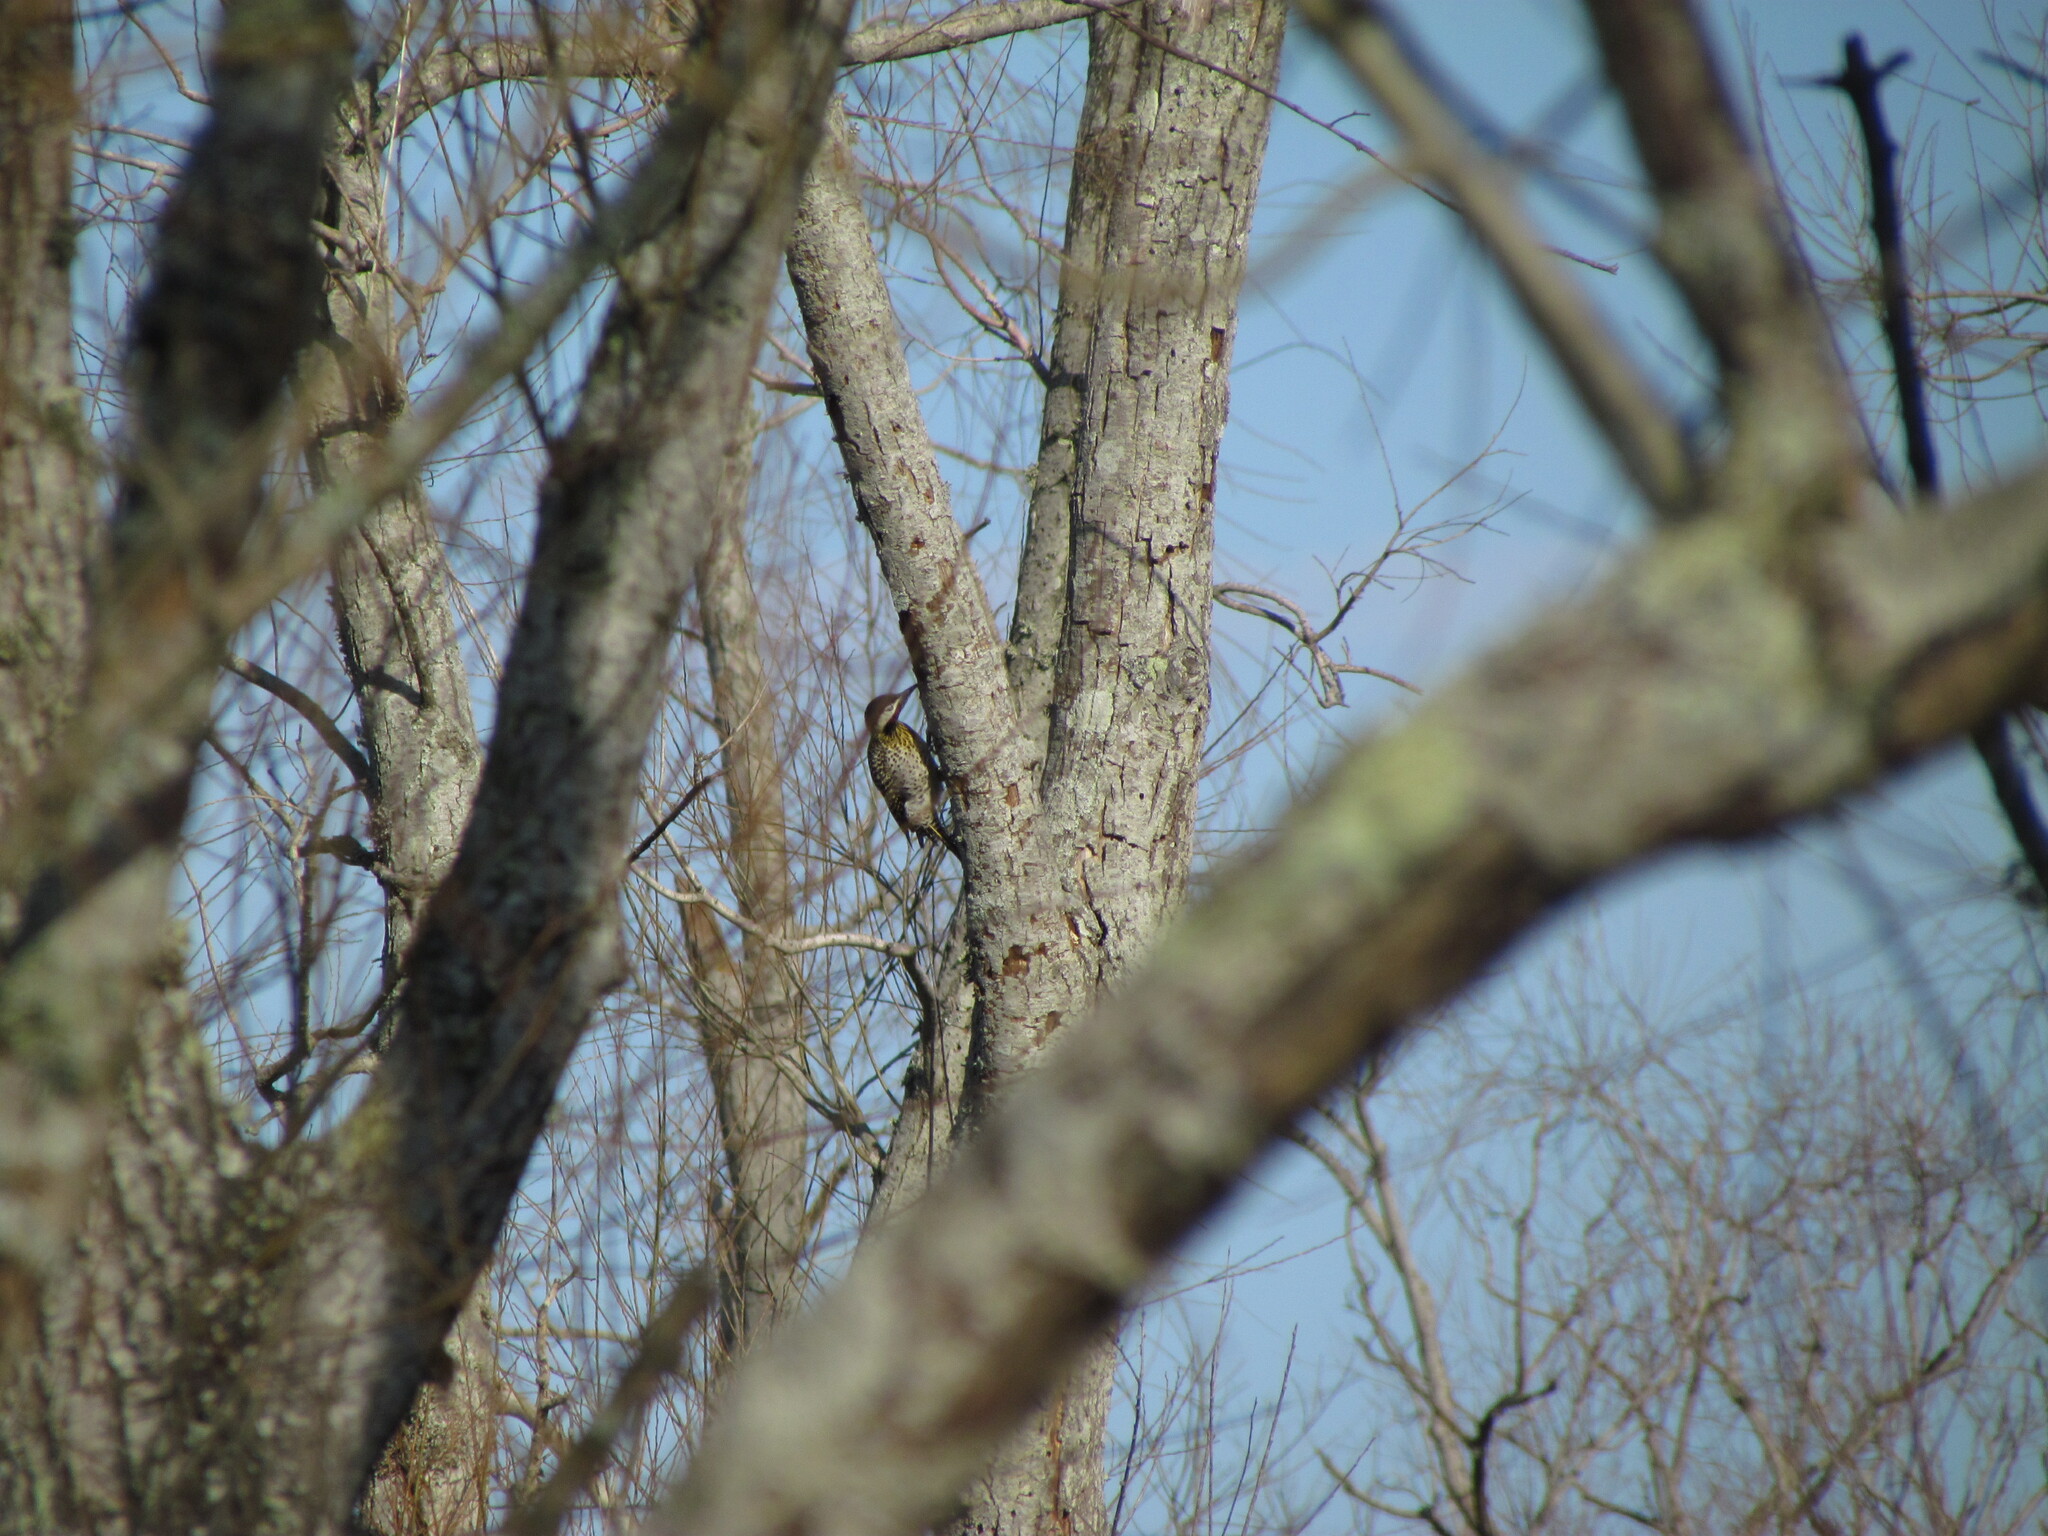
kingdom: Animalia
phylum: Chordata
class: Aves
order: Piciformes
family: Picidae
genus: Colaptes
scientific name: Colaptes melanochloros
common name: Green-barred woodpecker
